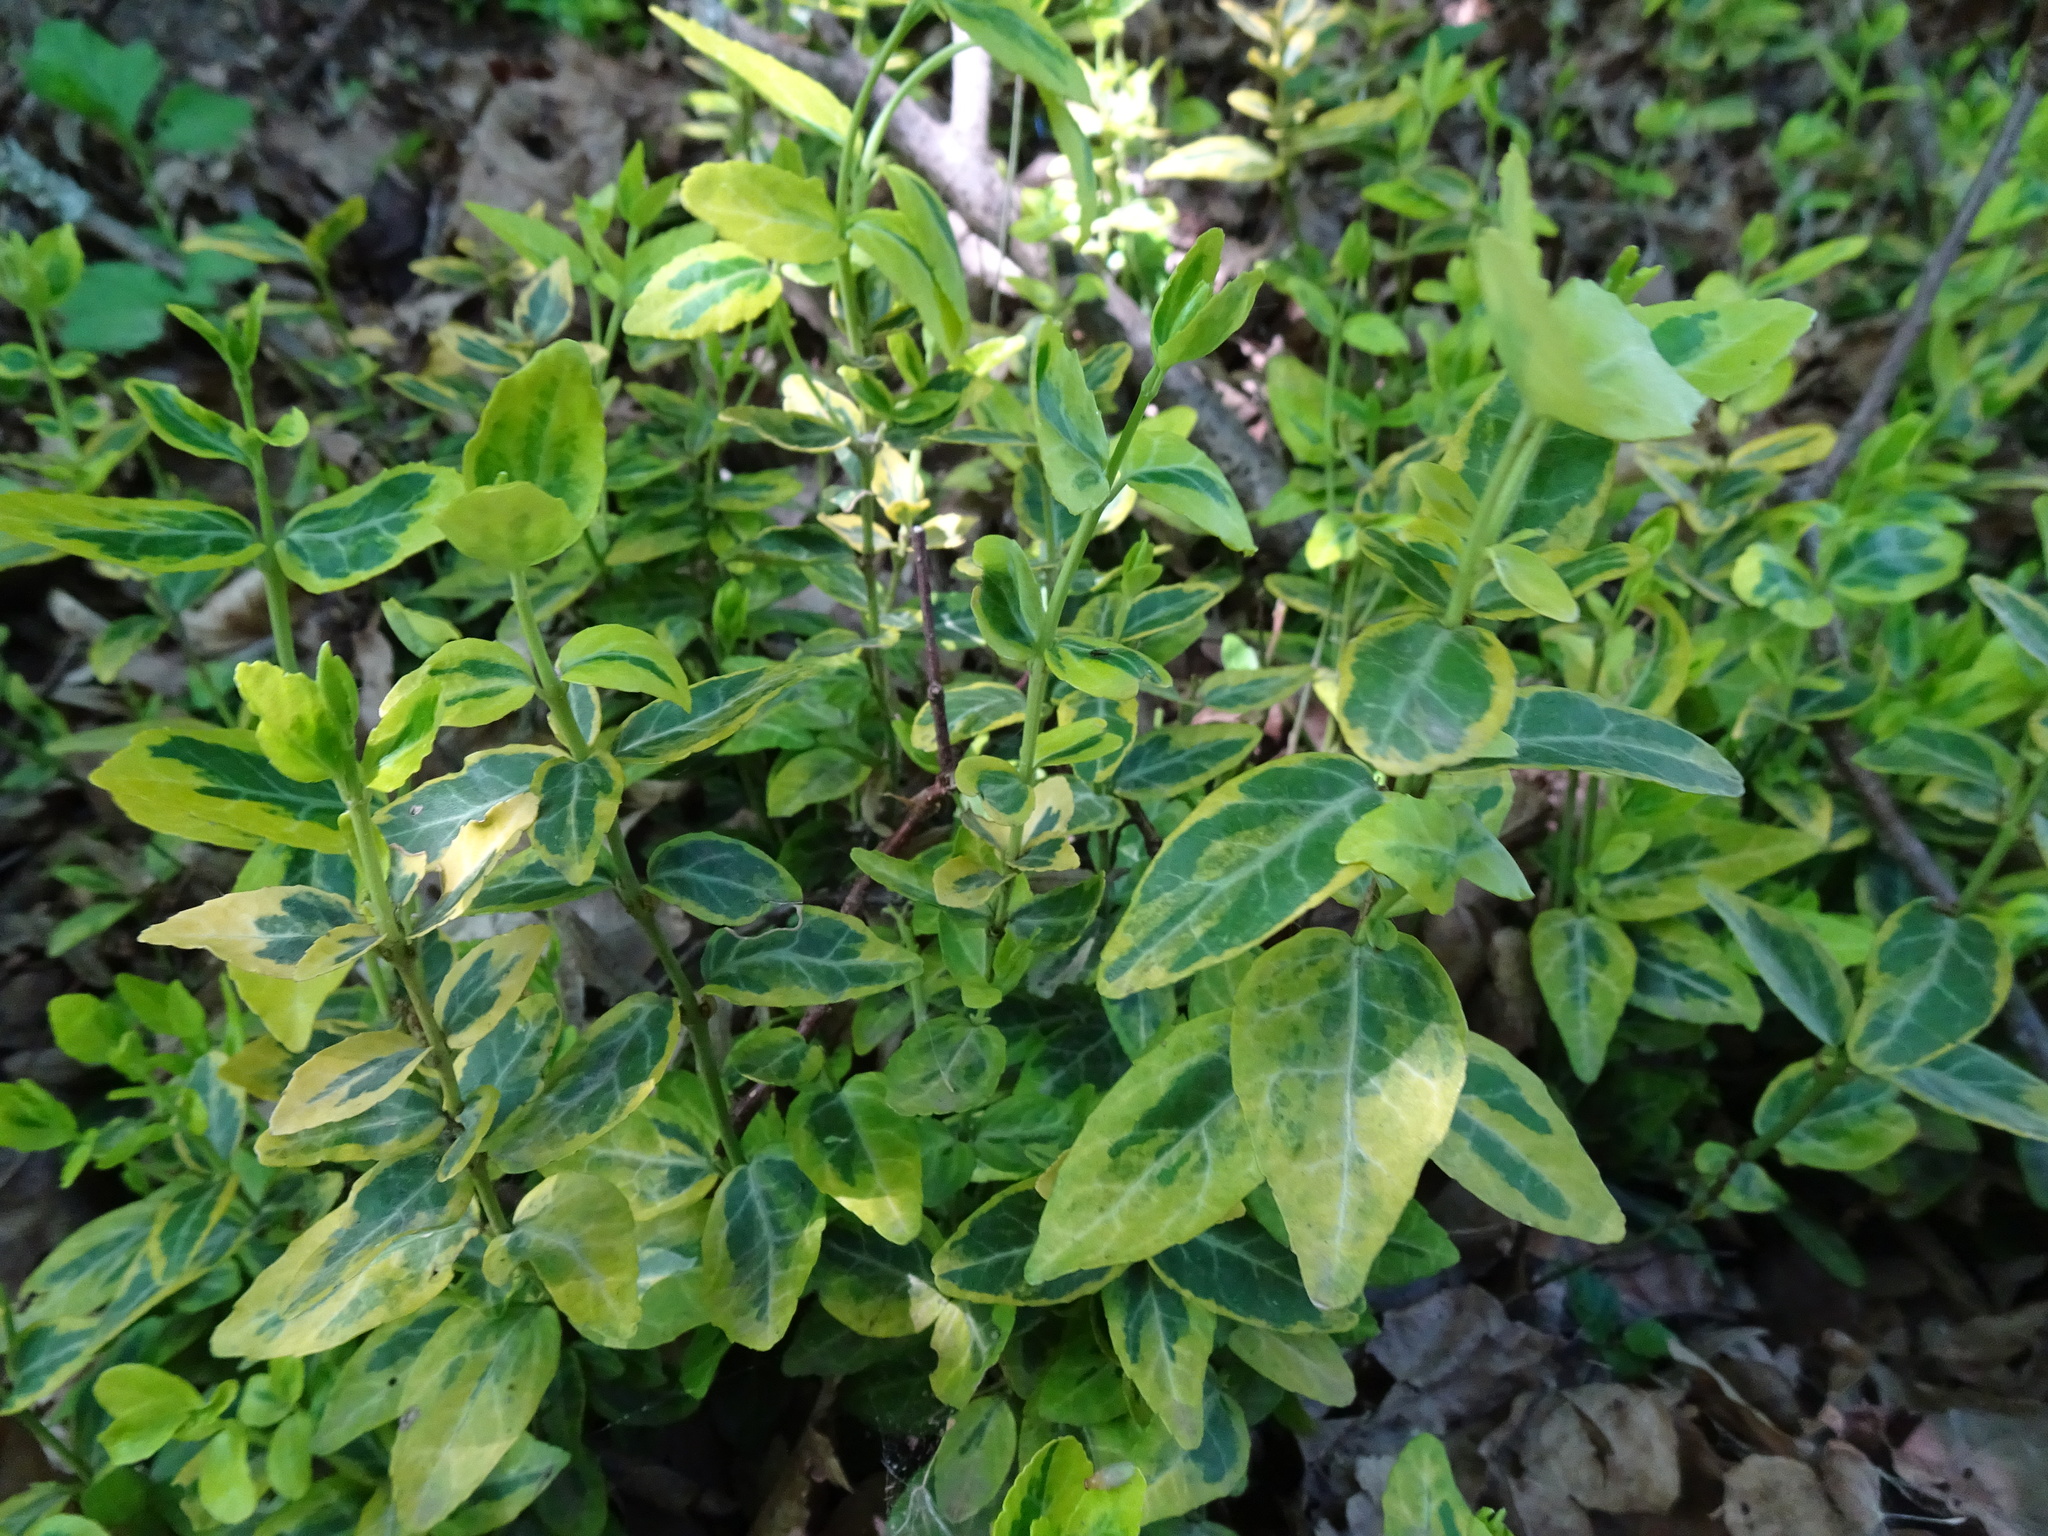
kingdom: Plantae
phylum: Tracheophyta
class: Magnoliopsida
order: Celastrales
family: Celastraceae
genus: Euonymus
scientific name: Euonymus japonicus
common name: Japanese spindletree
